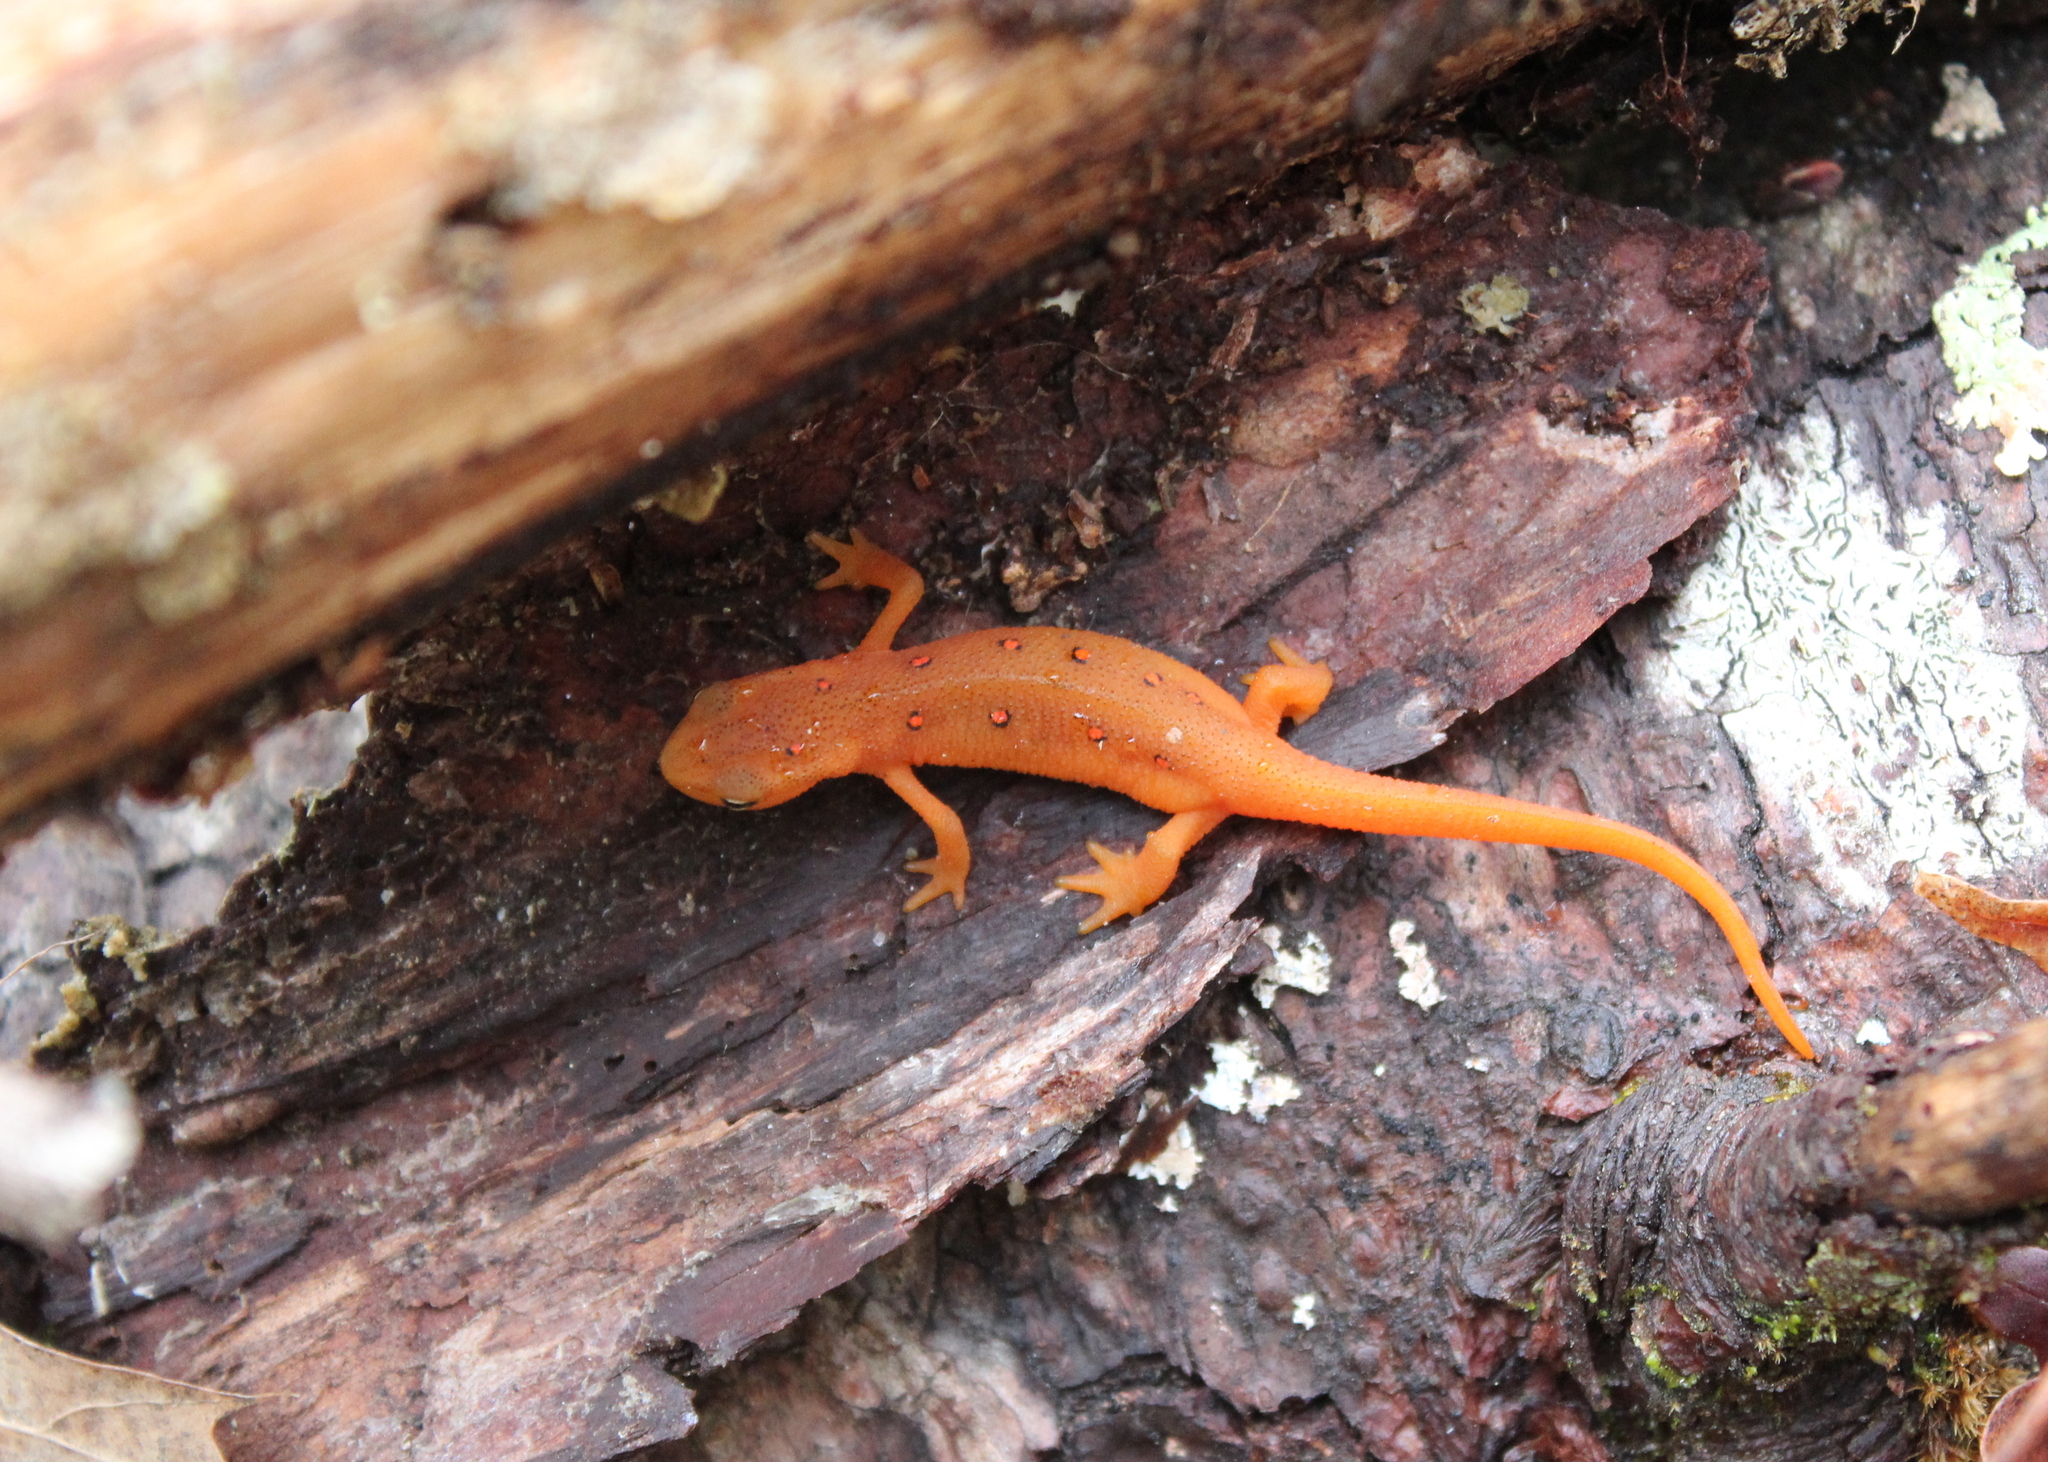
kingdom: Animalia
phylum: Chordata
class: Amphibia
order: Caudata
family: Salamandridae
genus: Notophthalmus
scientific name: Notophthalmus viridescens
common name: Eastern newt
